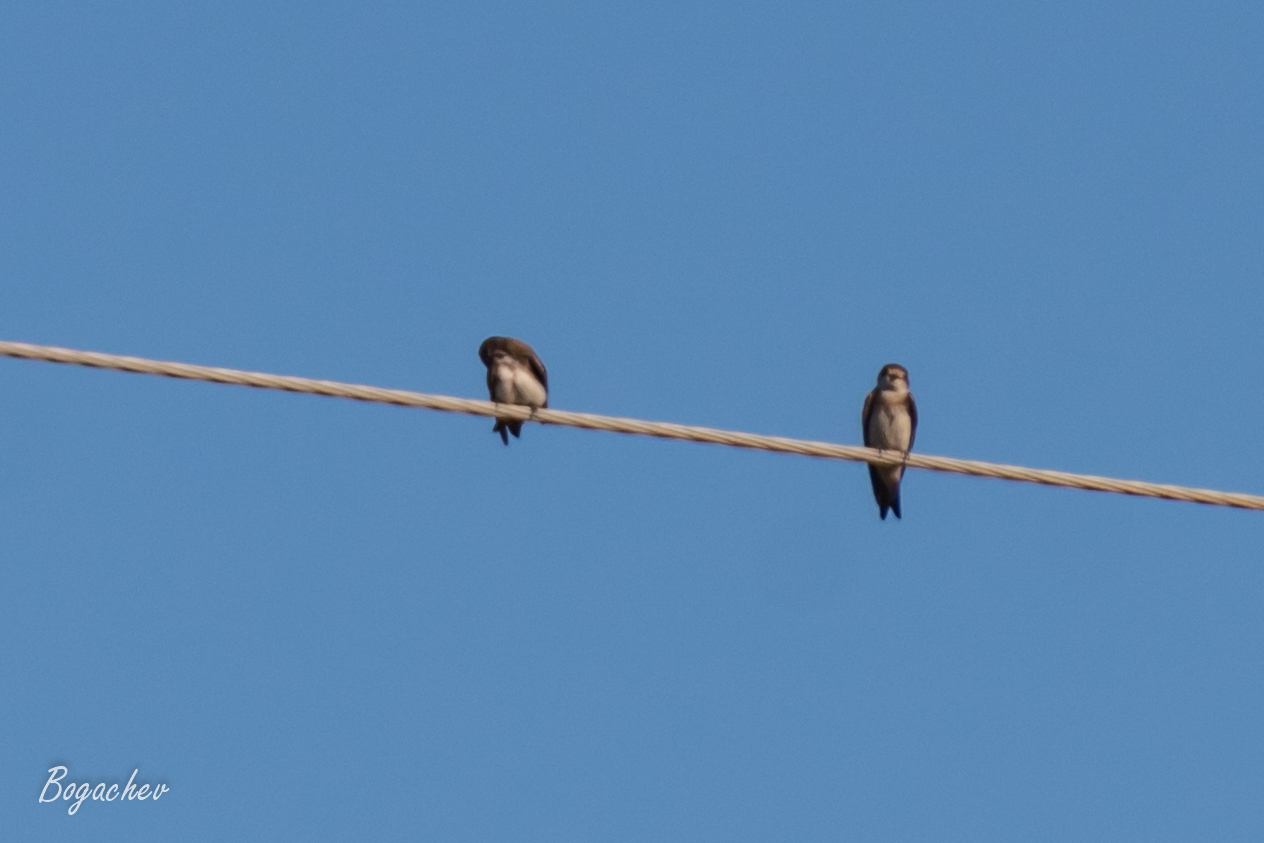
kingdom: Animalia
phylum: Chordata
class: Aves
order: Passeriformes
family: Hirundinidae
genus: Riparia
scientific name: Riparia riparia
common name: Sand martin
